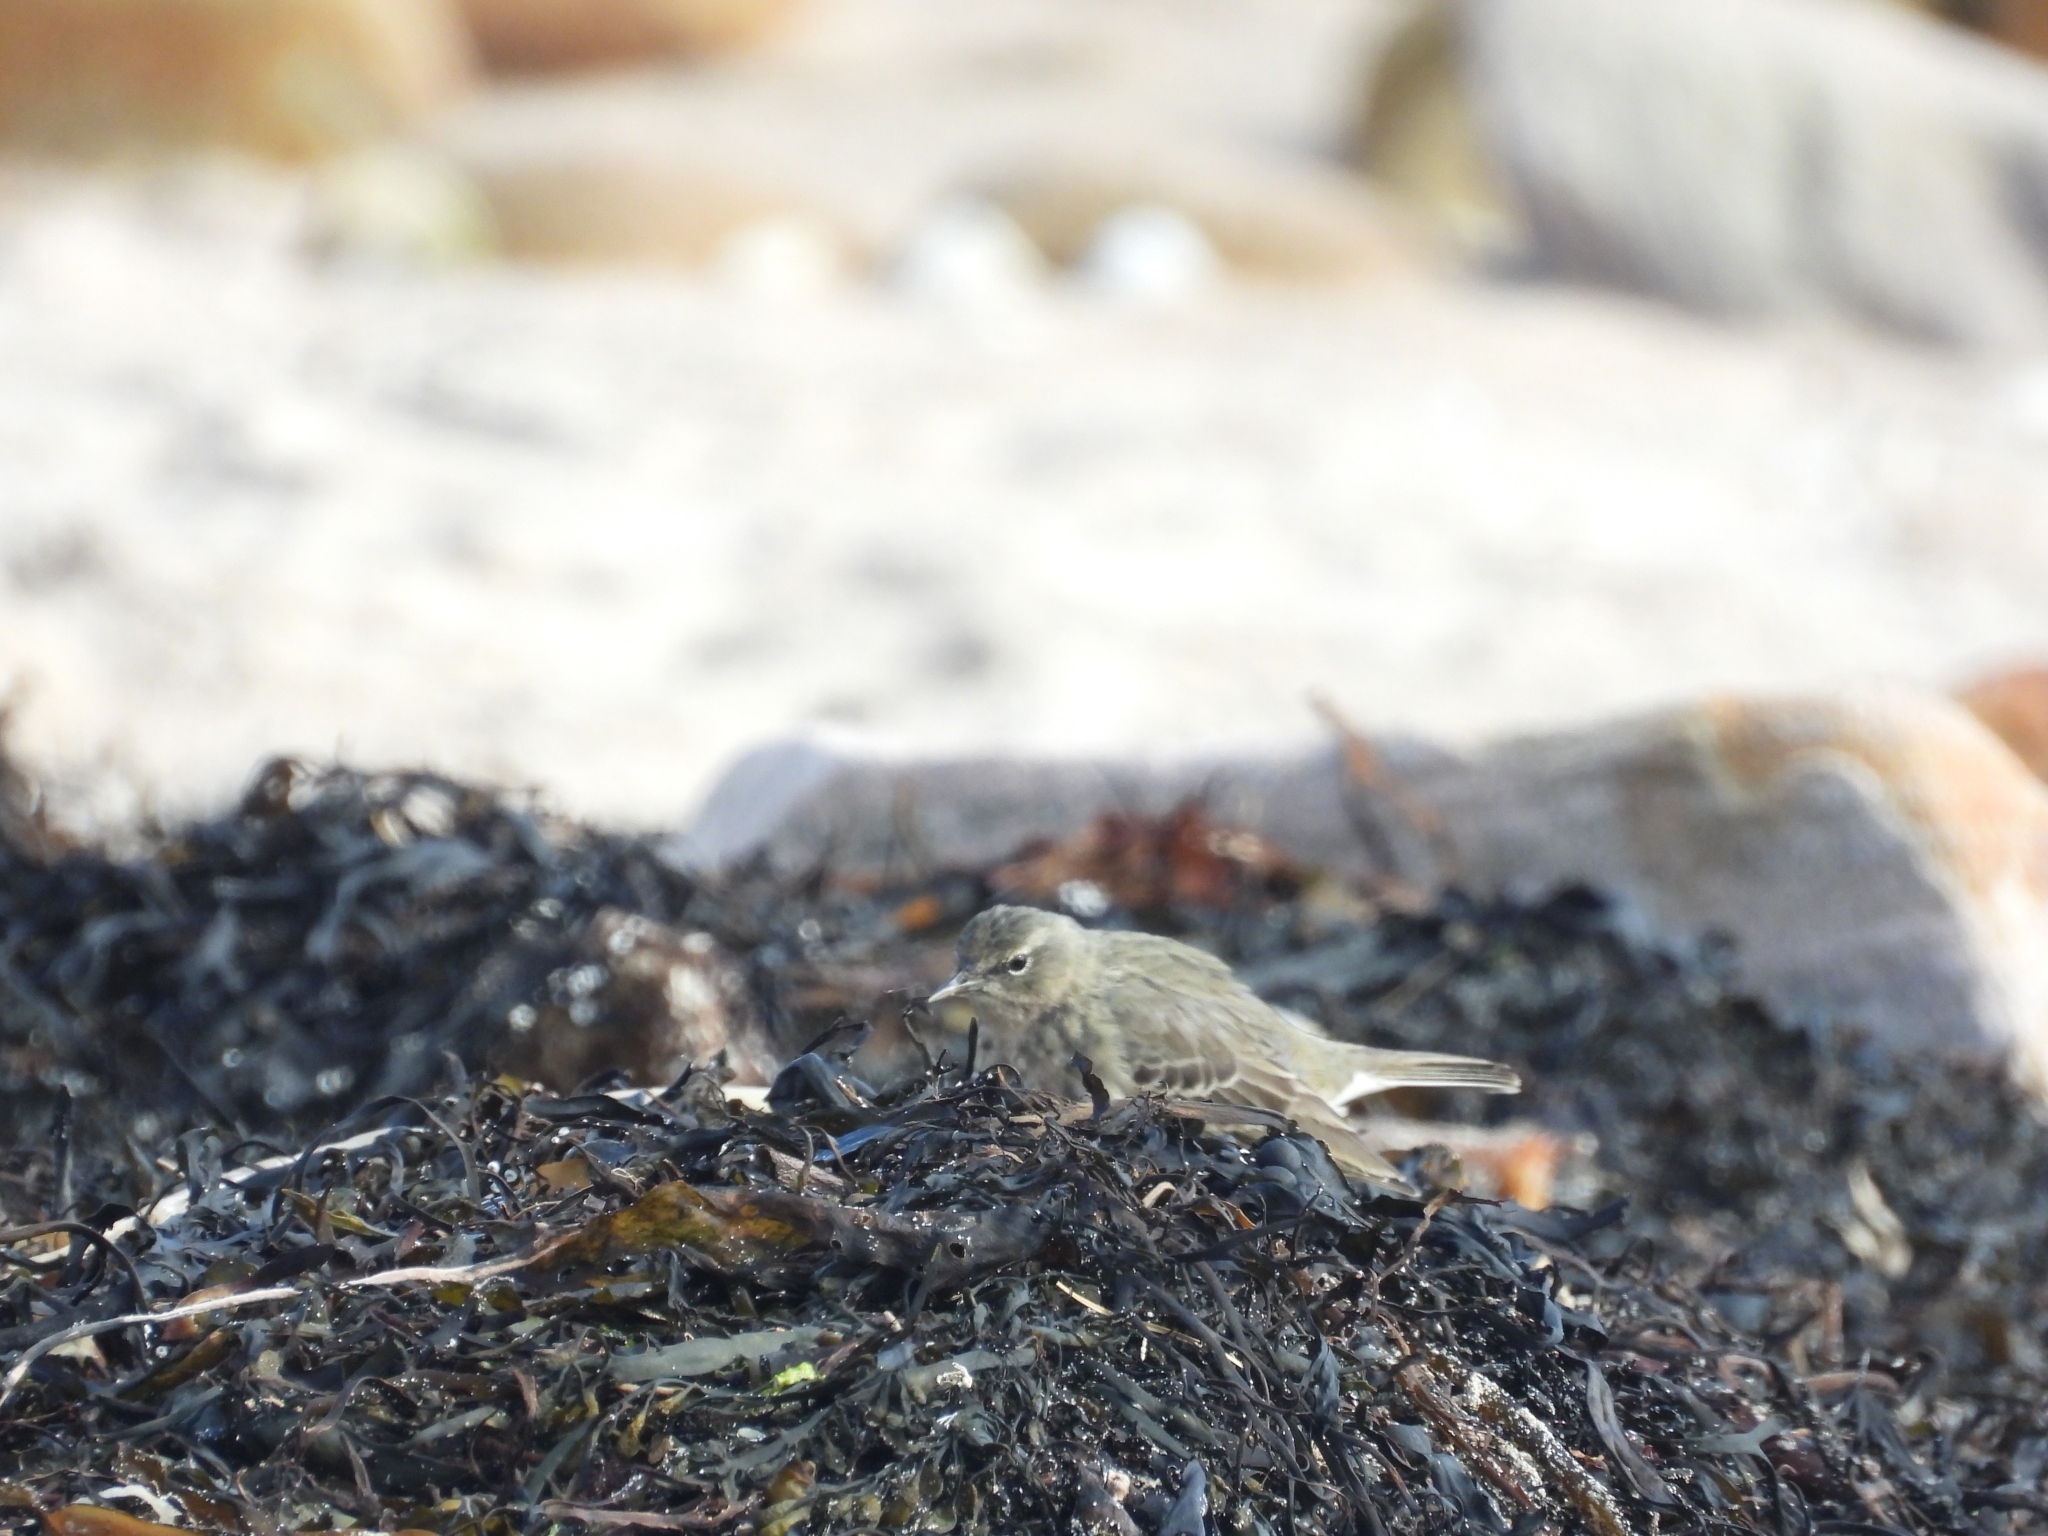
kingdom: Animalia
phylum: Chordata
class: Aves
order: Passeriformes
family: Motacillidae
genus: Anthus
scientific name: Anthus petrosus
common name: Eurasian rock pipit
